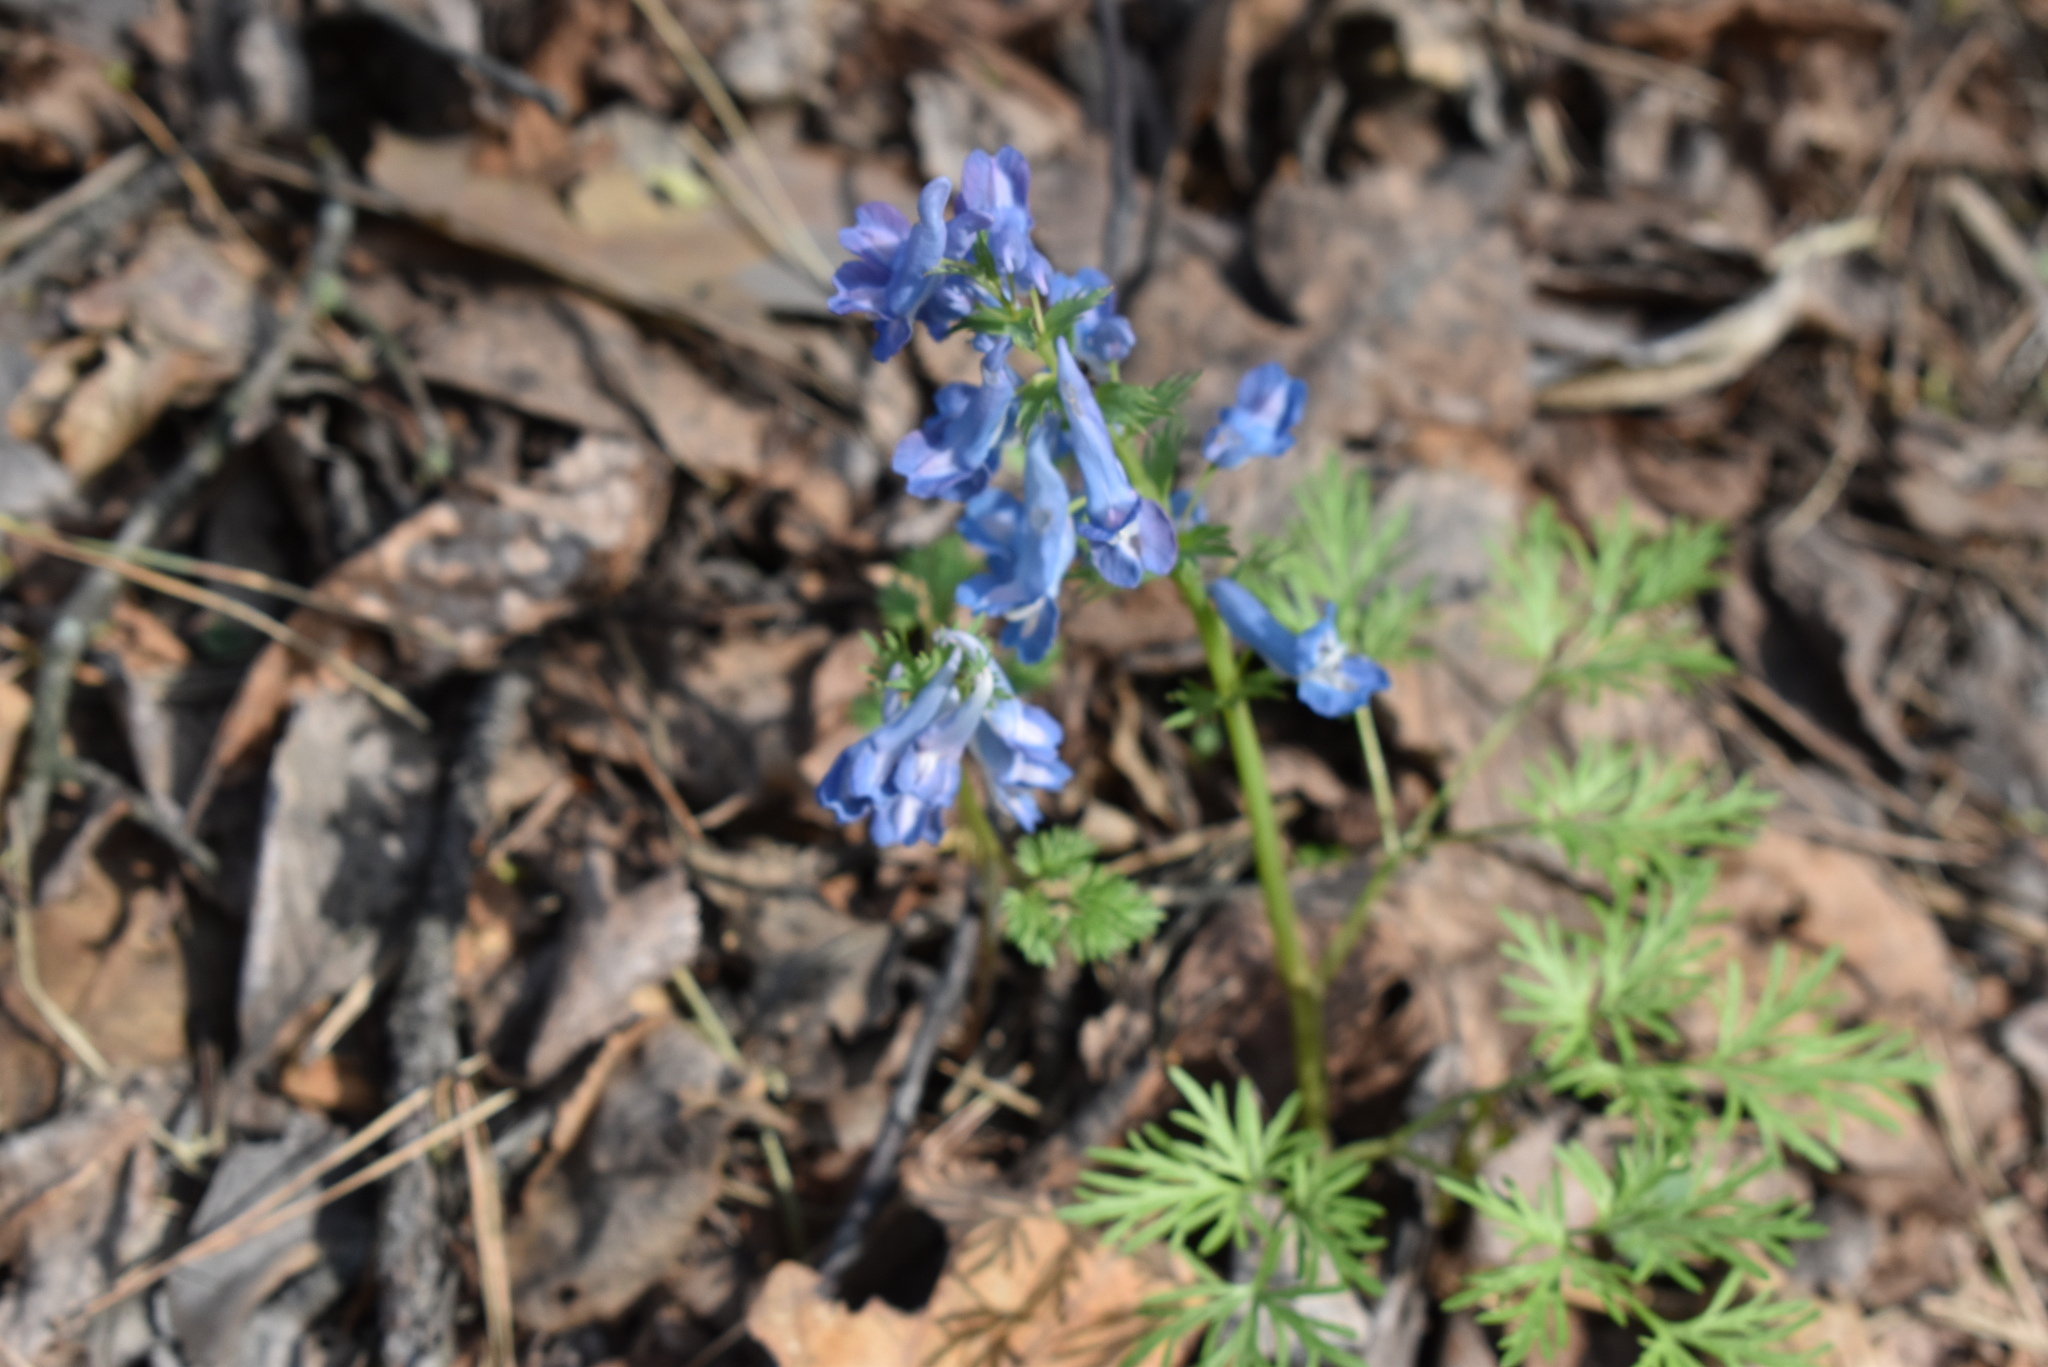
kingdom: Plantae
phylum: Tracheophyta
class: Magnoliopsida
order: Ranunculales
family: Papaveraceae
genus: Corydalis
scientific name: Corydalis fumariifolia
